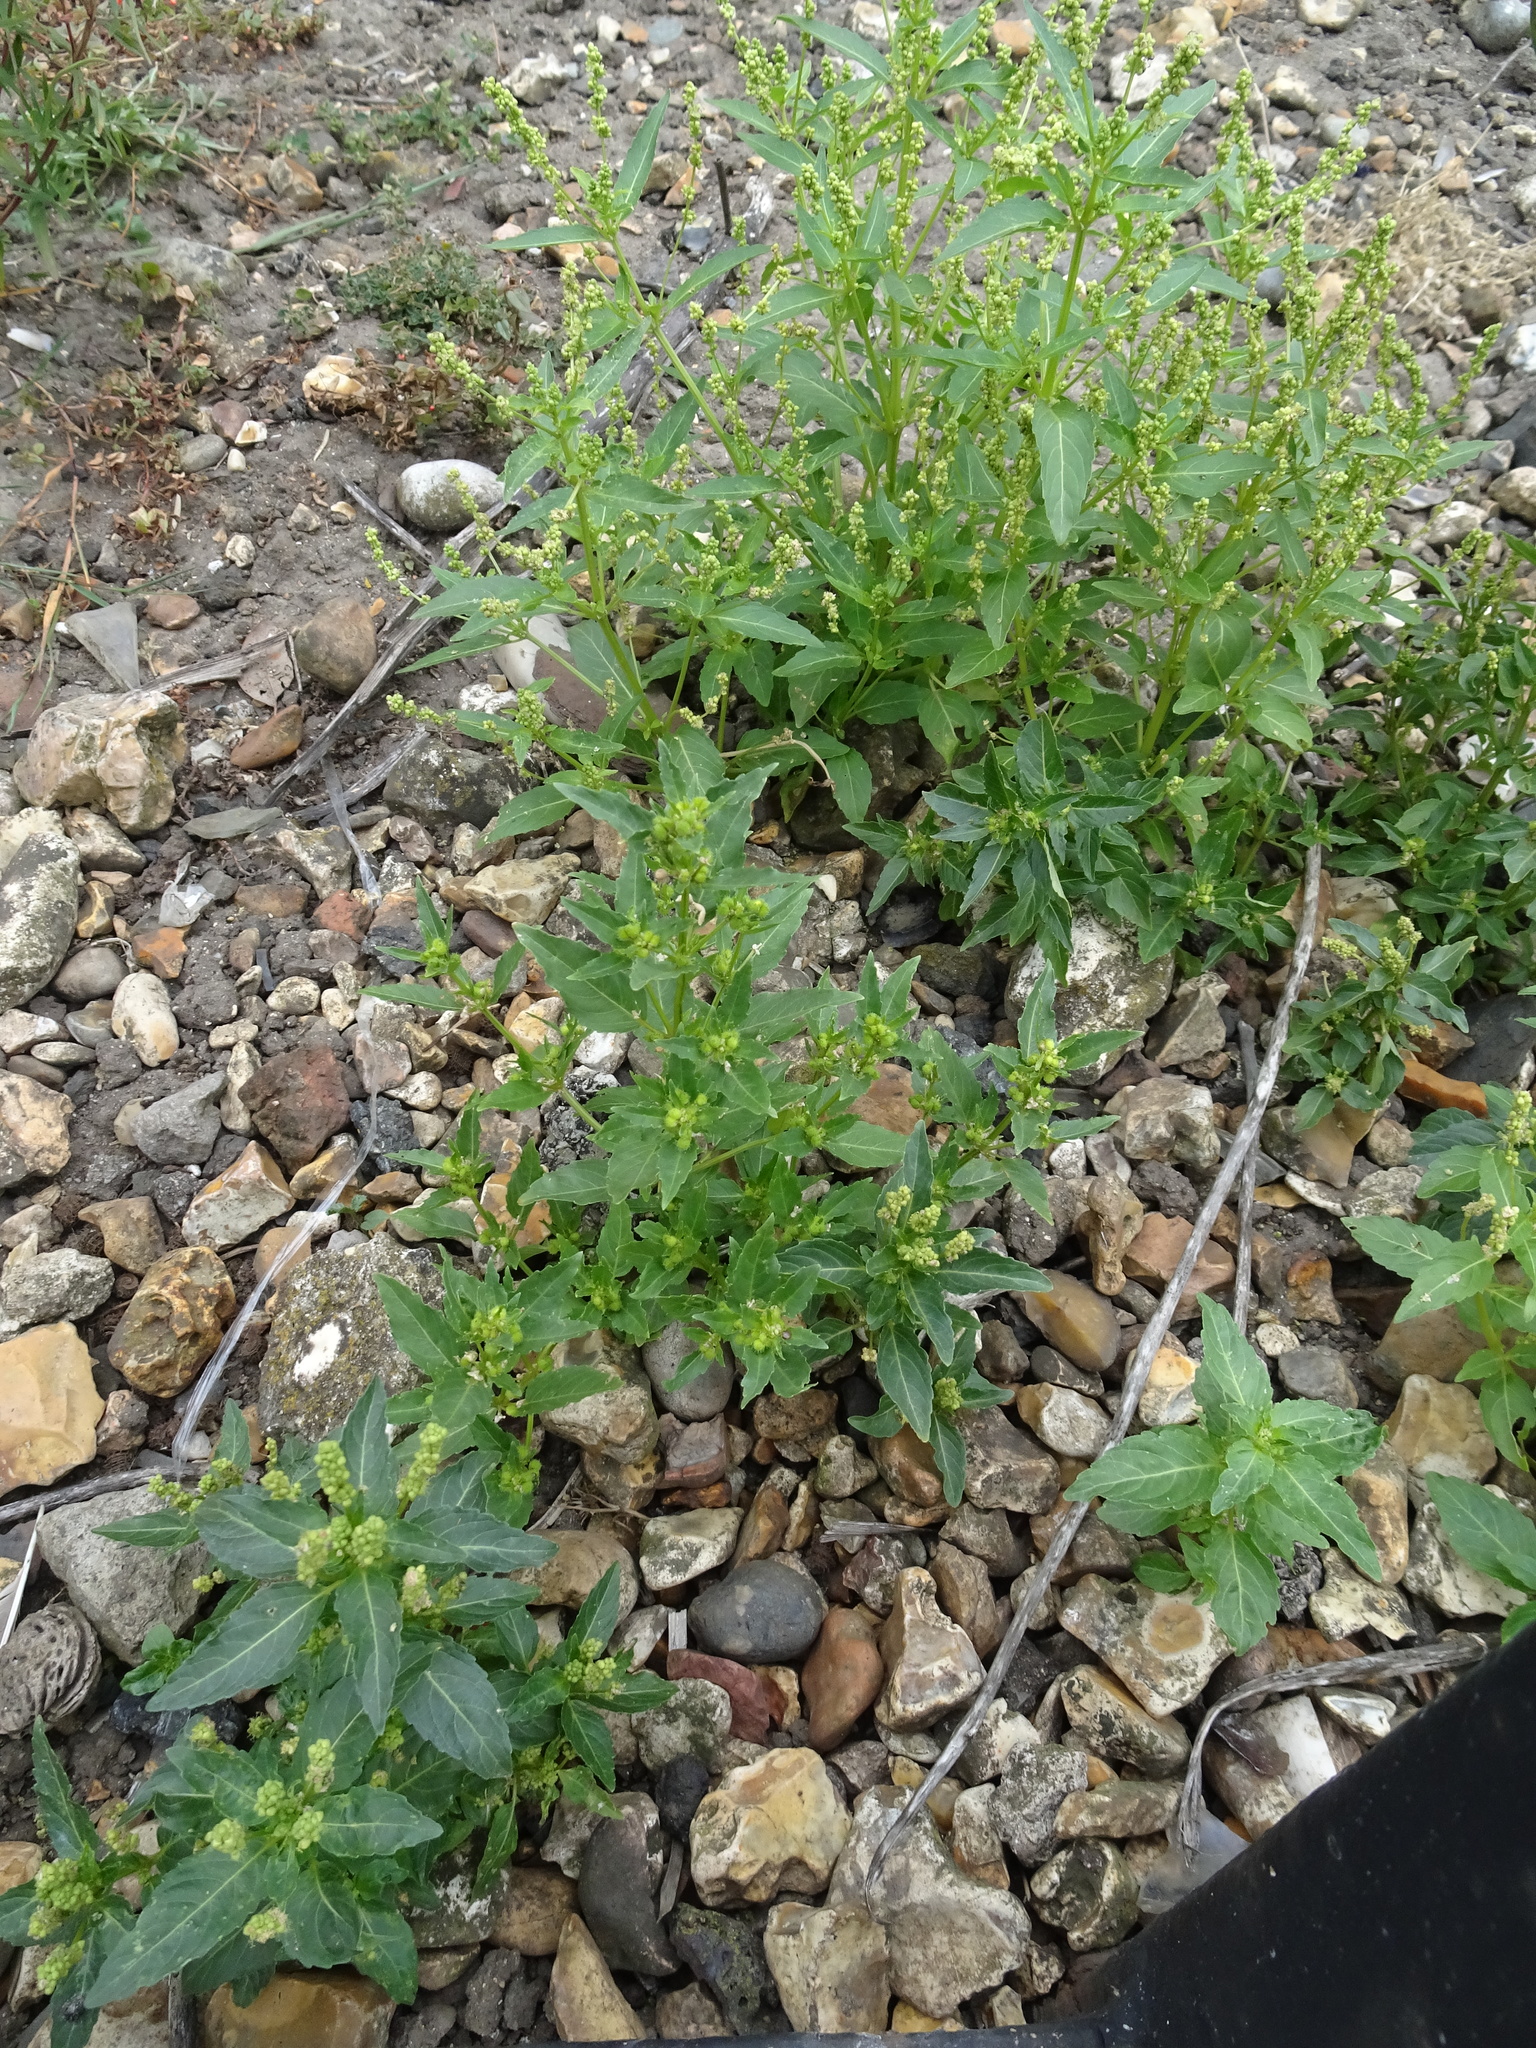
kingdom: Plantae
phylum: Tracheophyta
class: Magnoliopsida
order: Malpighiales
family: Euphorbiaceae
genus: Mercurialis
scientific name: Mercurialis annua
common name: Annual mercury
